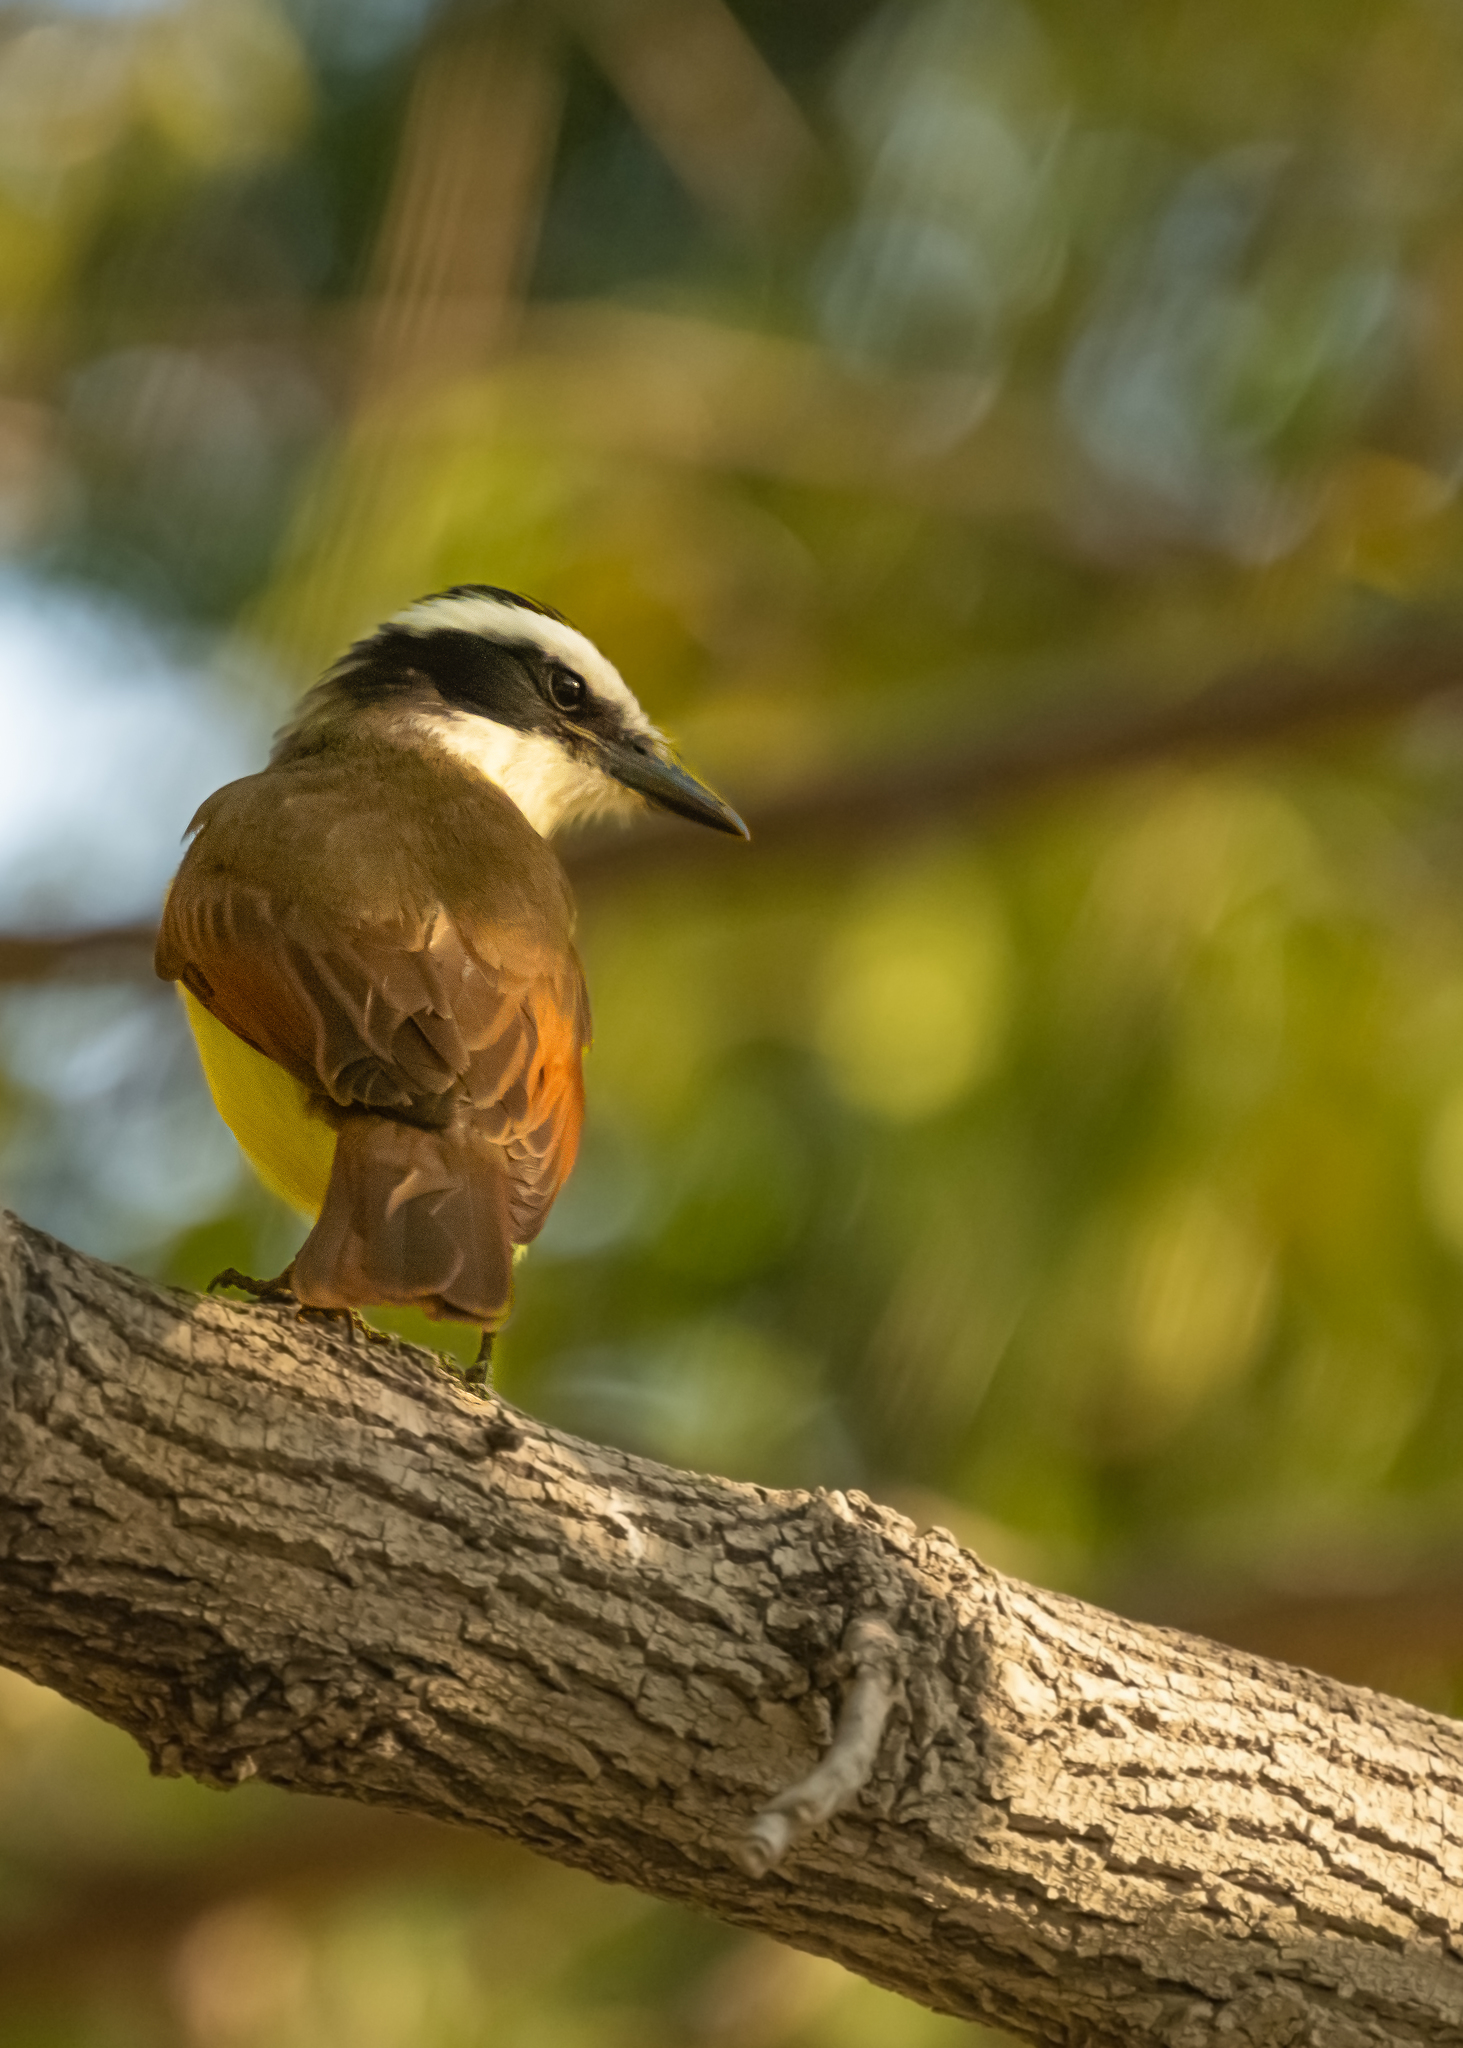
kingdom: Animalia
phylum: Chordata
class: Aves
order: Passeriformes
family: Tyrannidae
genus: Pitangus
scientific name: Pitangus sulphuratus
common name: Great kiskadee
